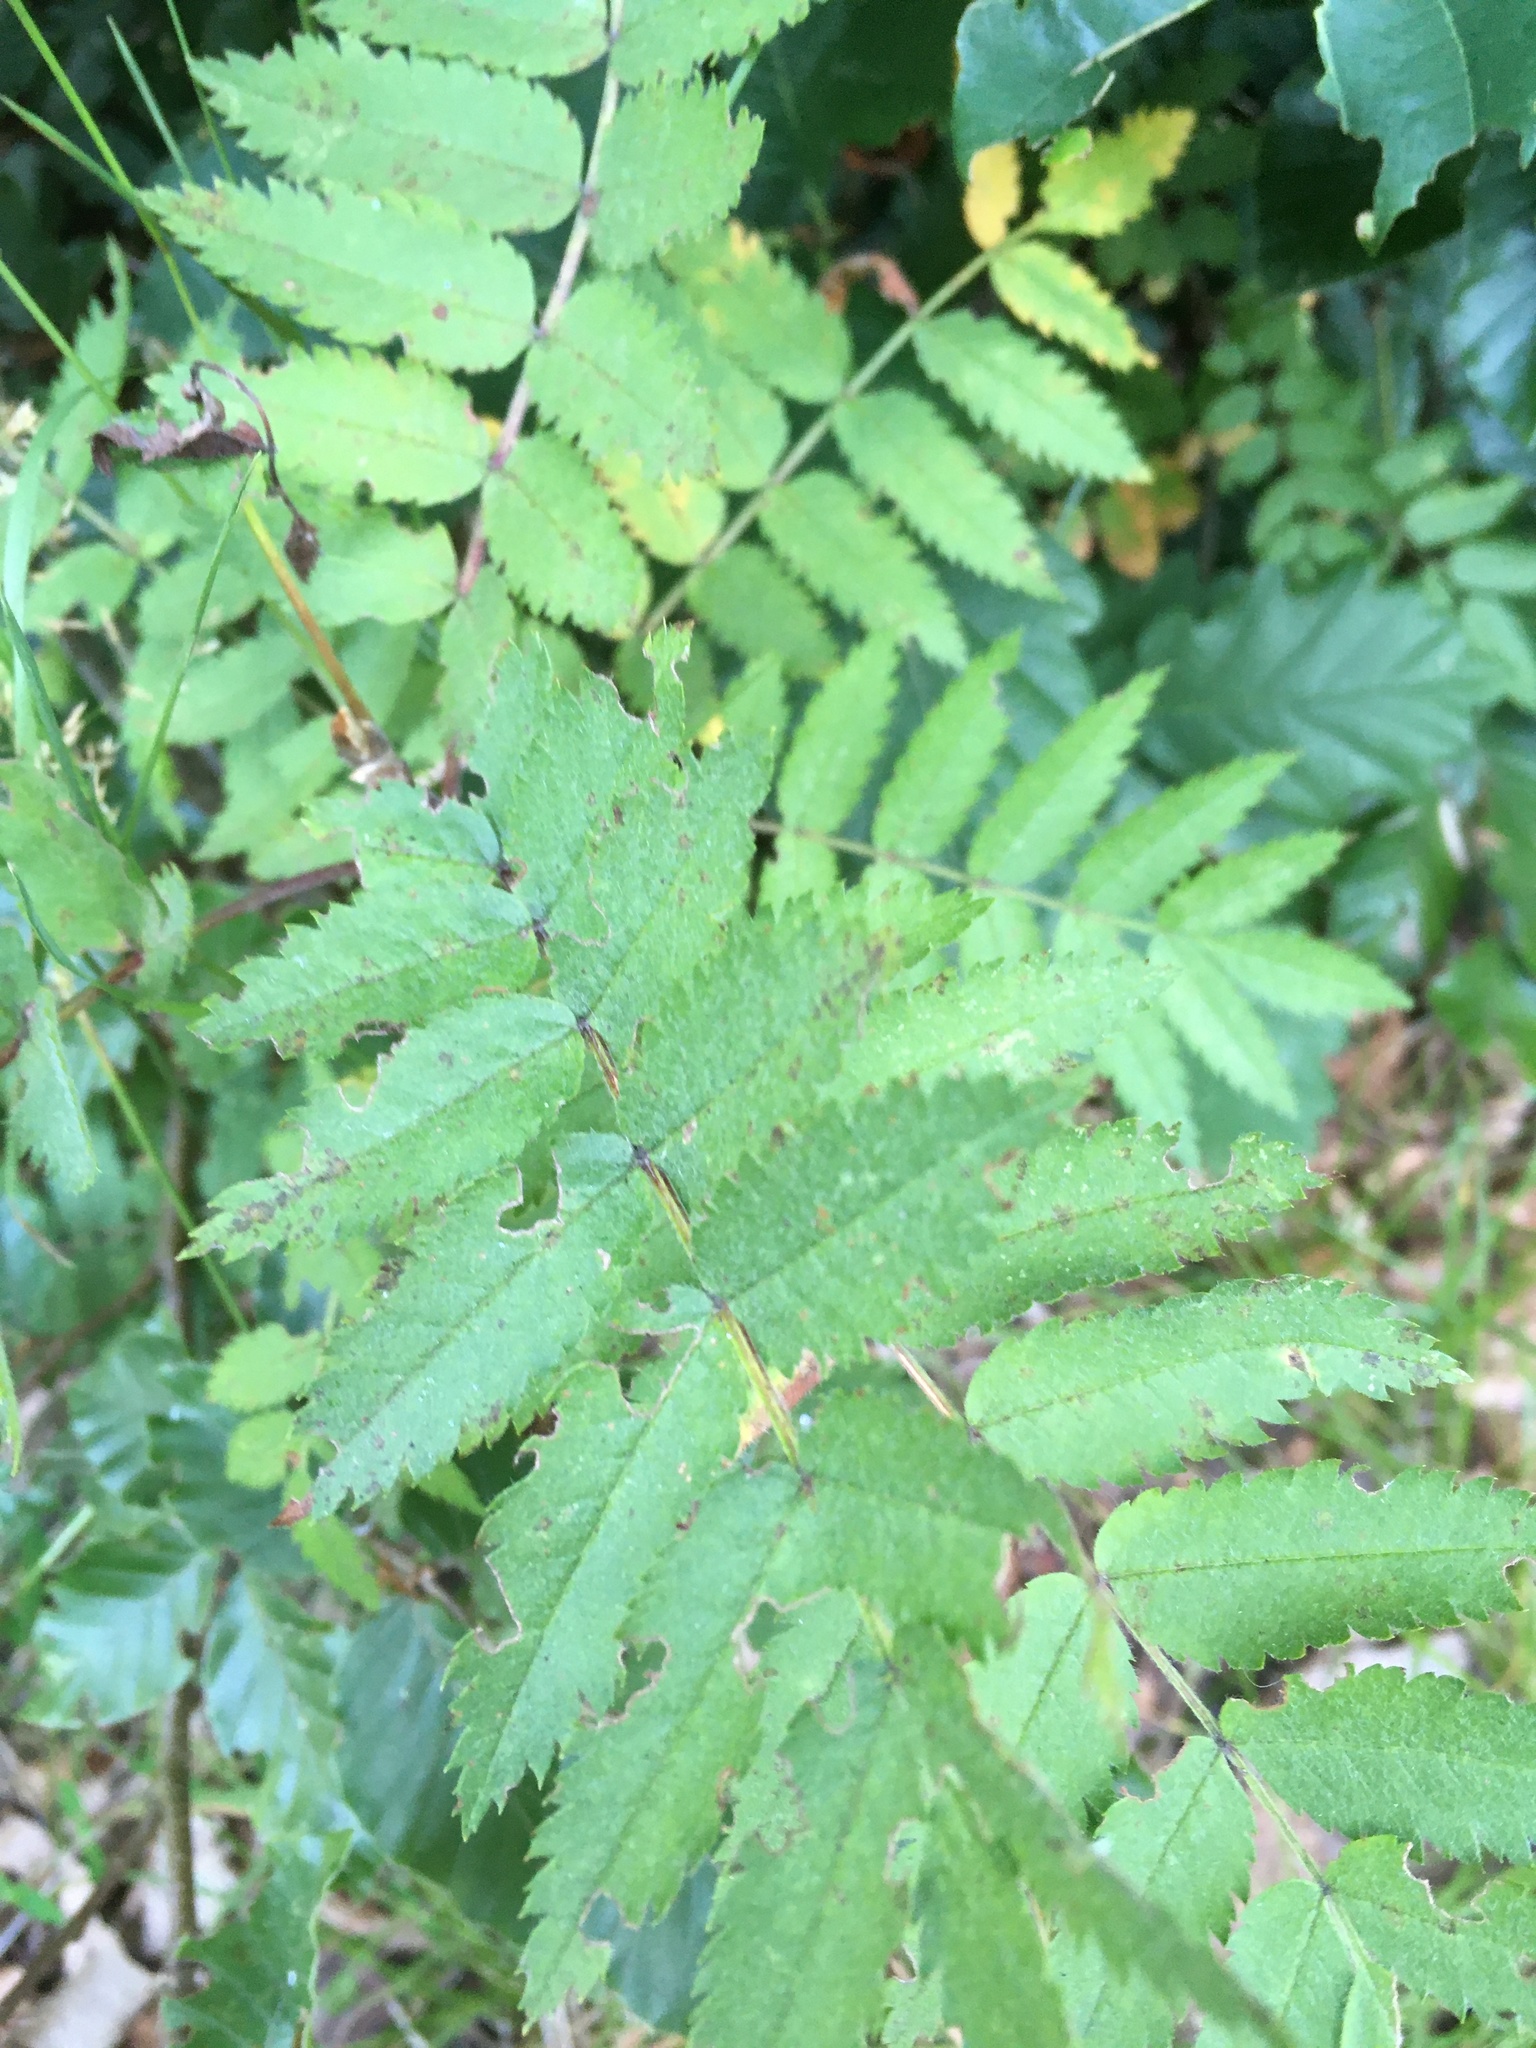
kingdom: Plantae
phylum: Tracheophyta
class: Magnoliopsida
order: Rosales
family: Rosaceae
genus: Sorbus
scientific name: Sorbus aucuparia
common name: Rowan
